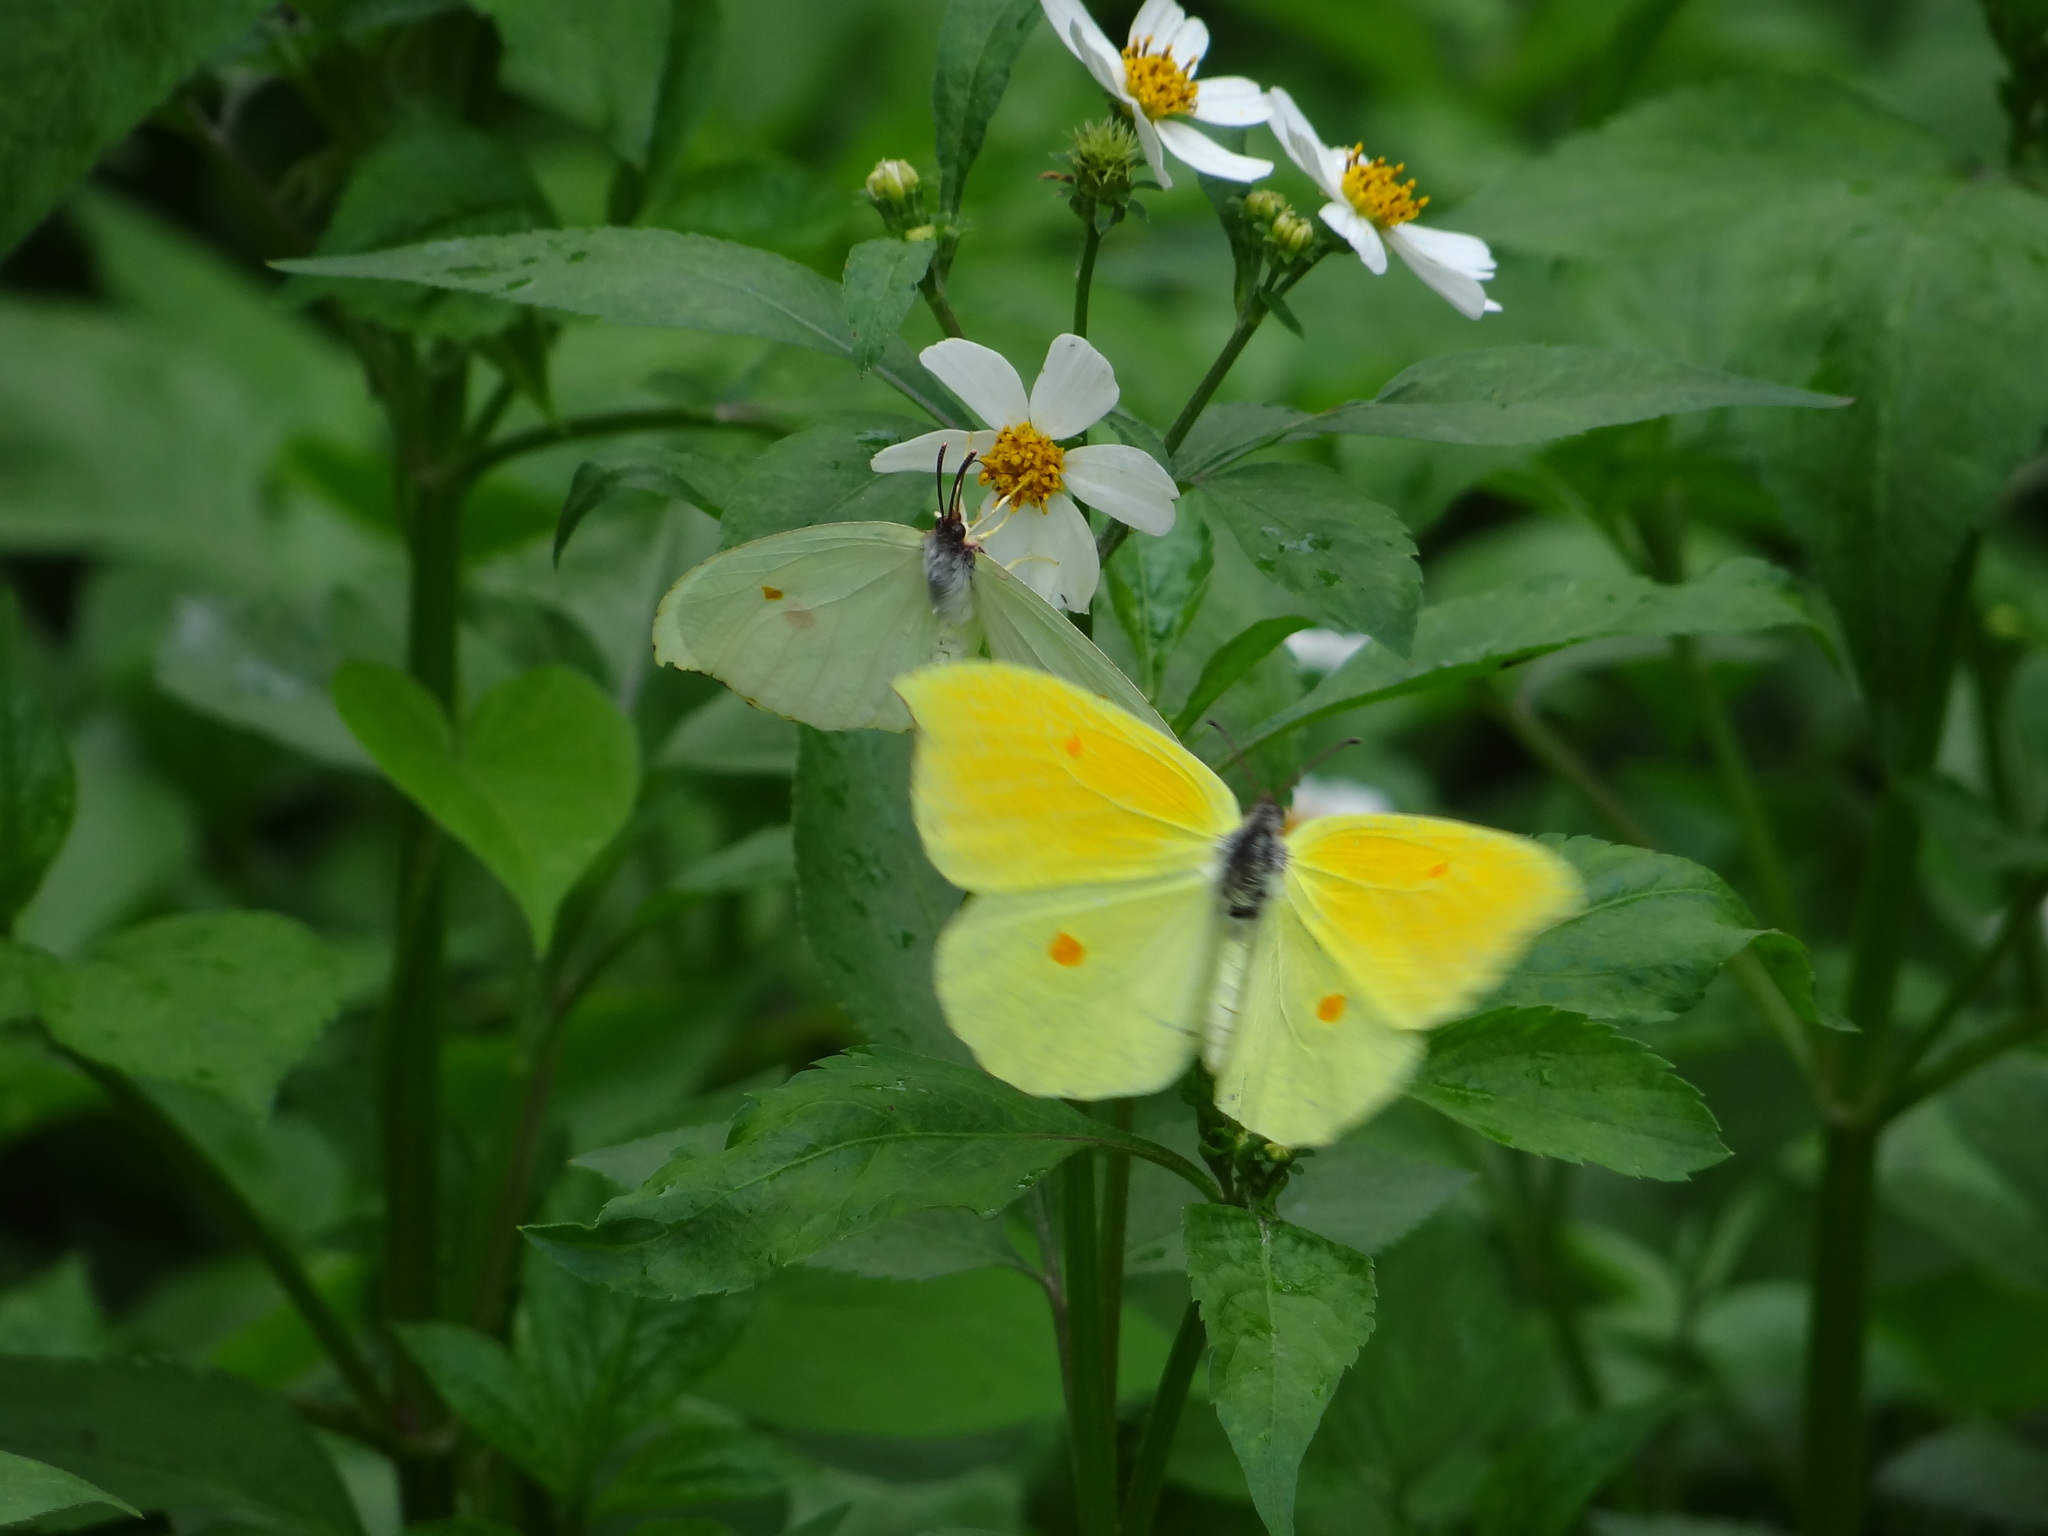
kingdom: Animalia
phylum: Arthropoda
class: Insecta
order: Lepidoptera
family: Pieridae
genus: Gonepteryx
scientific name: Gonepteryx amintha
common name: Orange brimstone
